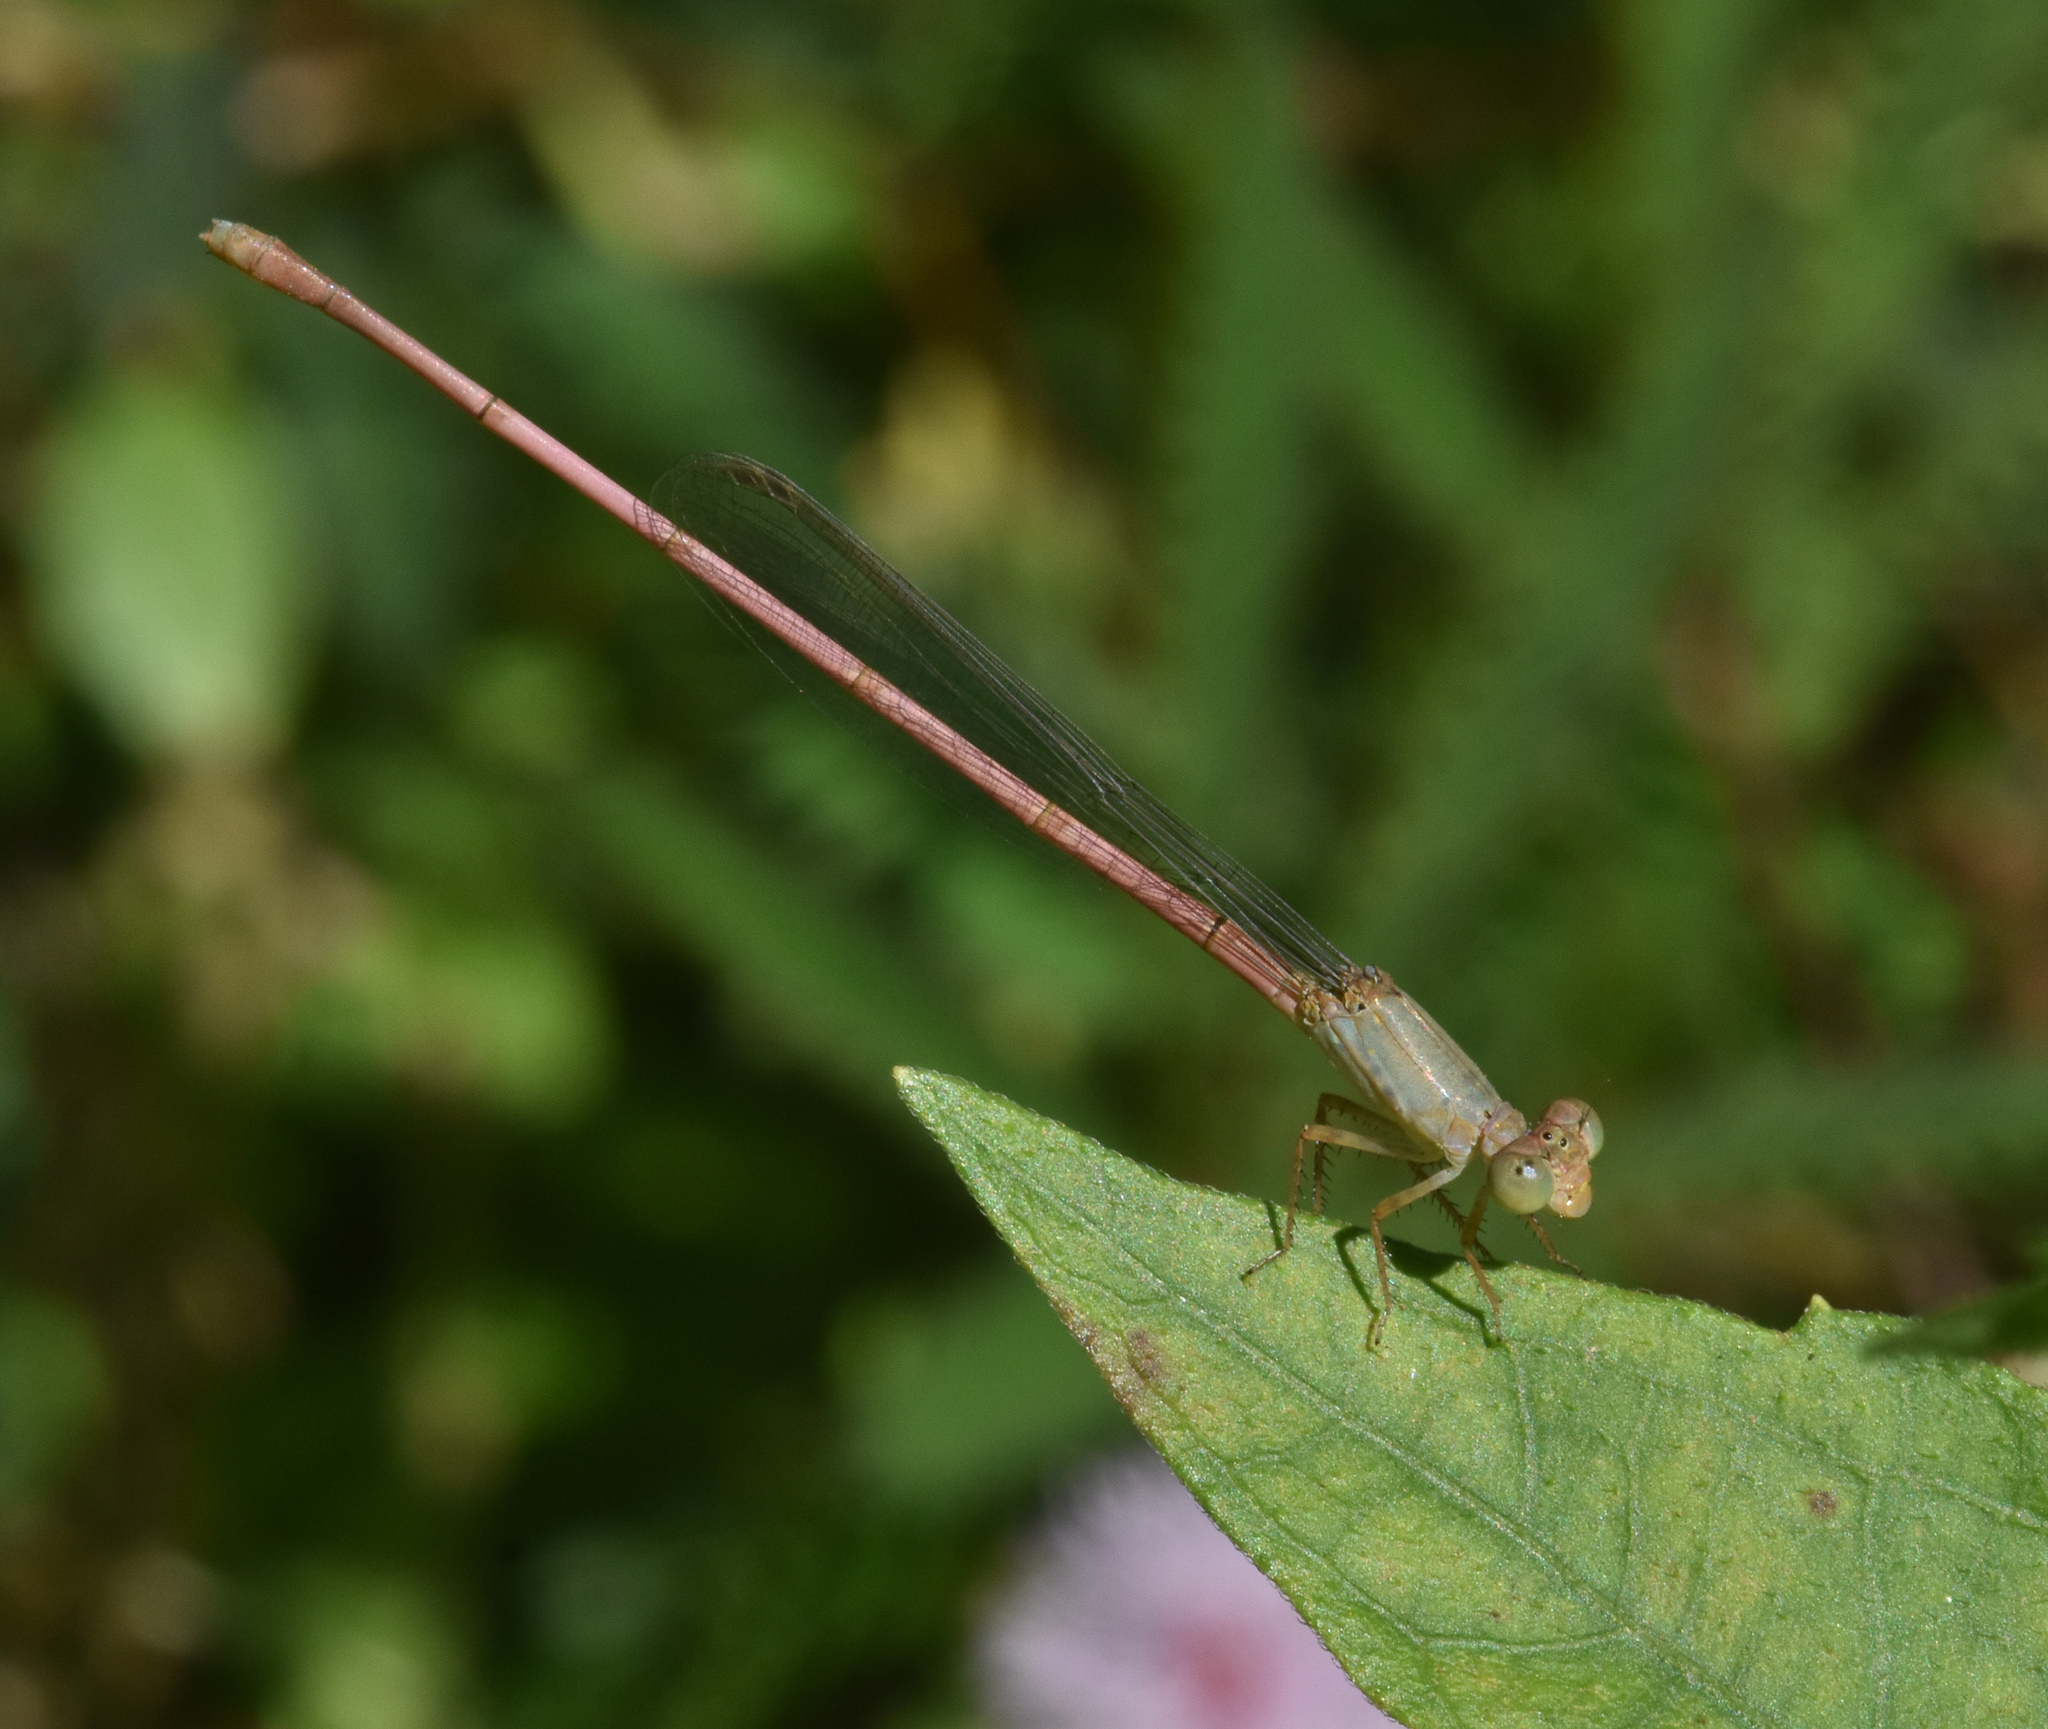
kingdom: Animalia
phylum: Arthropoda
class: Insecta
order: Odonata
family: Coenagrionidae
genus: Ceriagrion
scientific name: Ceriagrion olivaceum
